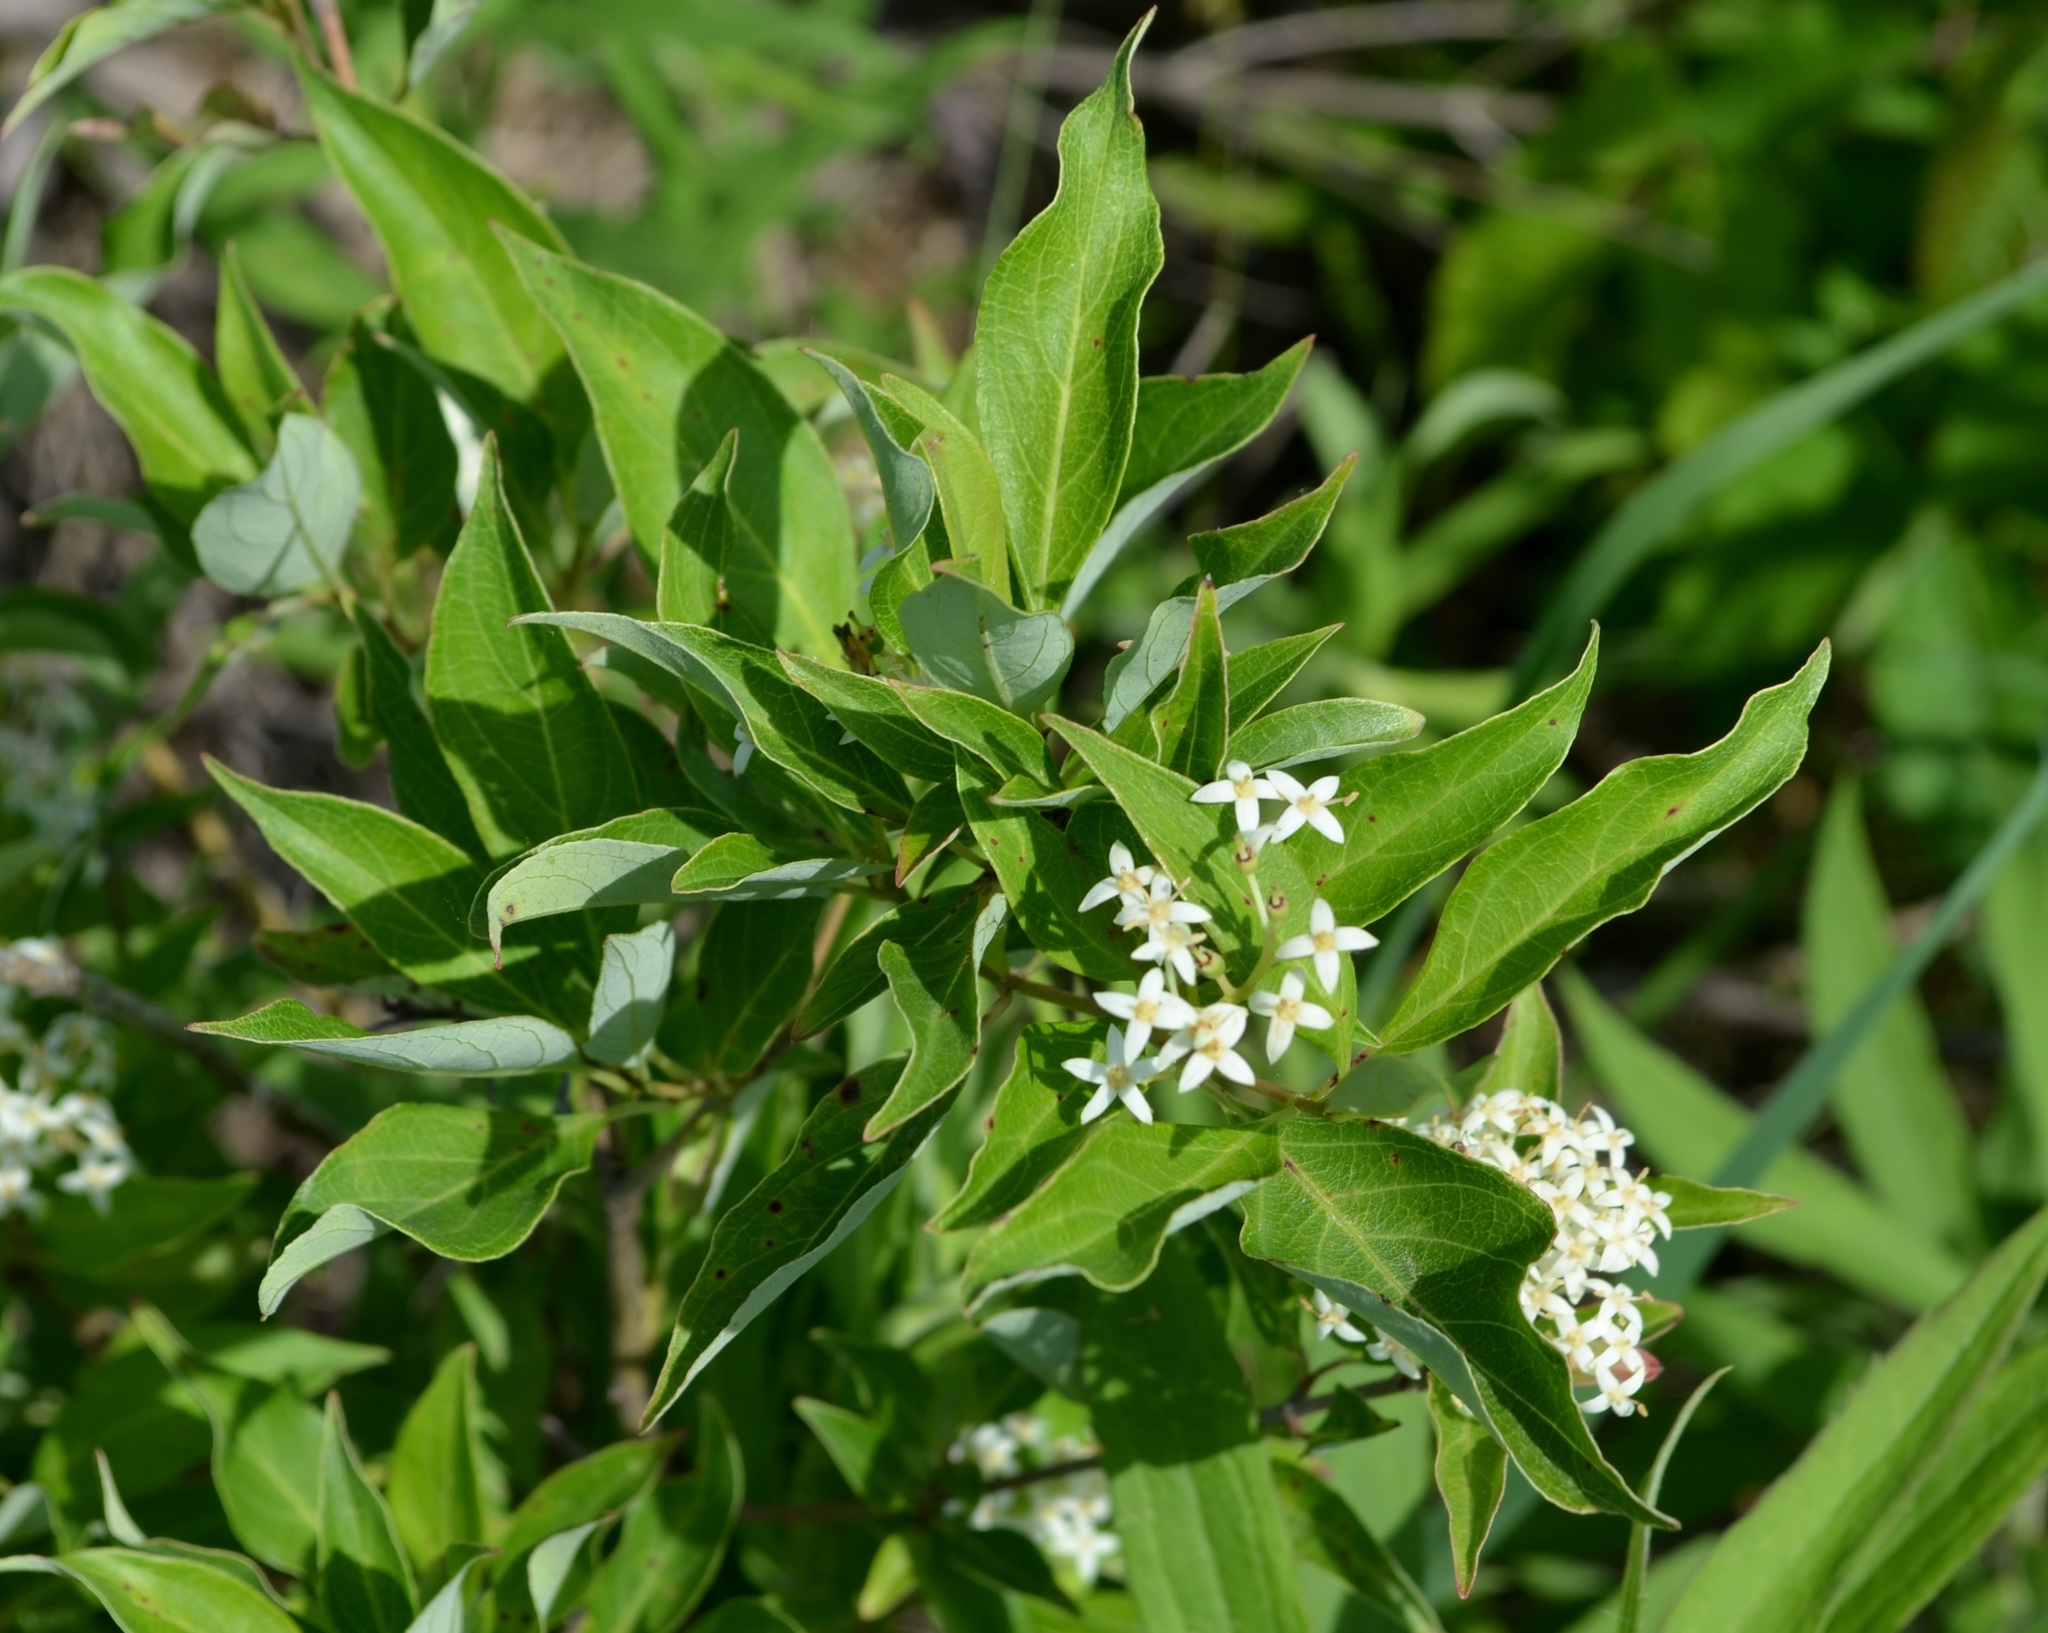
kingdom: Plantae
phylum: Tracheophyta
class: Magnoliopsida
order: Cornales
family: Cornaceae
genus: Cornus
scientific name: Cornus racemosa
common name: Panicled dogwood
